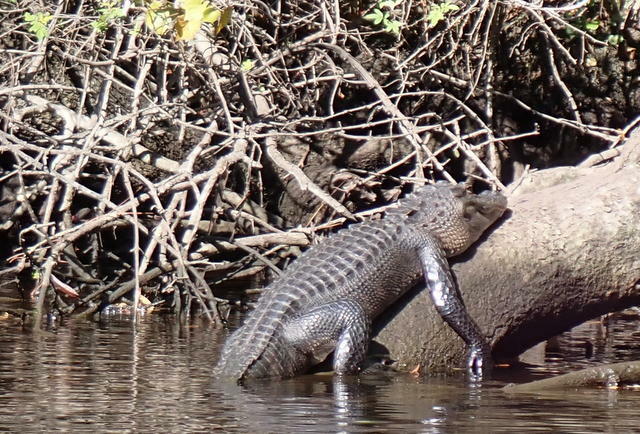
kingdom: Animalia
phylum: Chordata
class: Crocodylia
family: Alligatoridae
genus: Alligator
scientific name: Alligator mississippiensis
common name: American alligator
